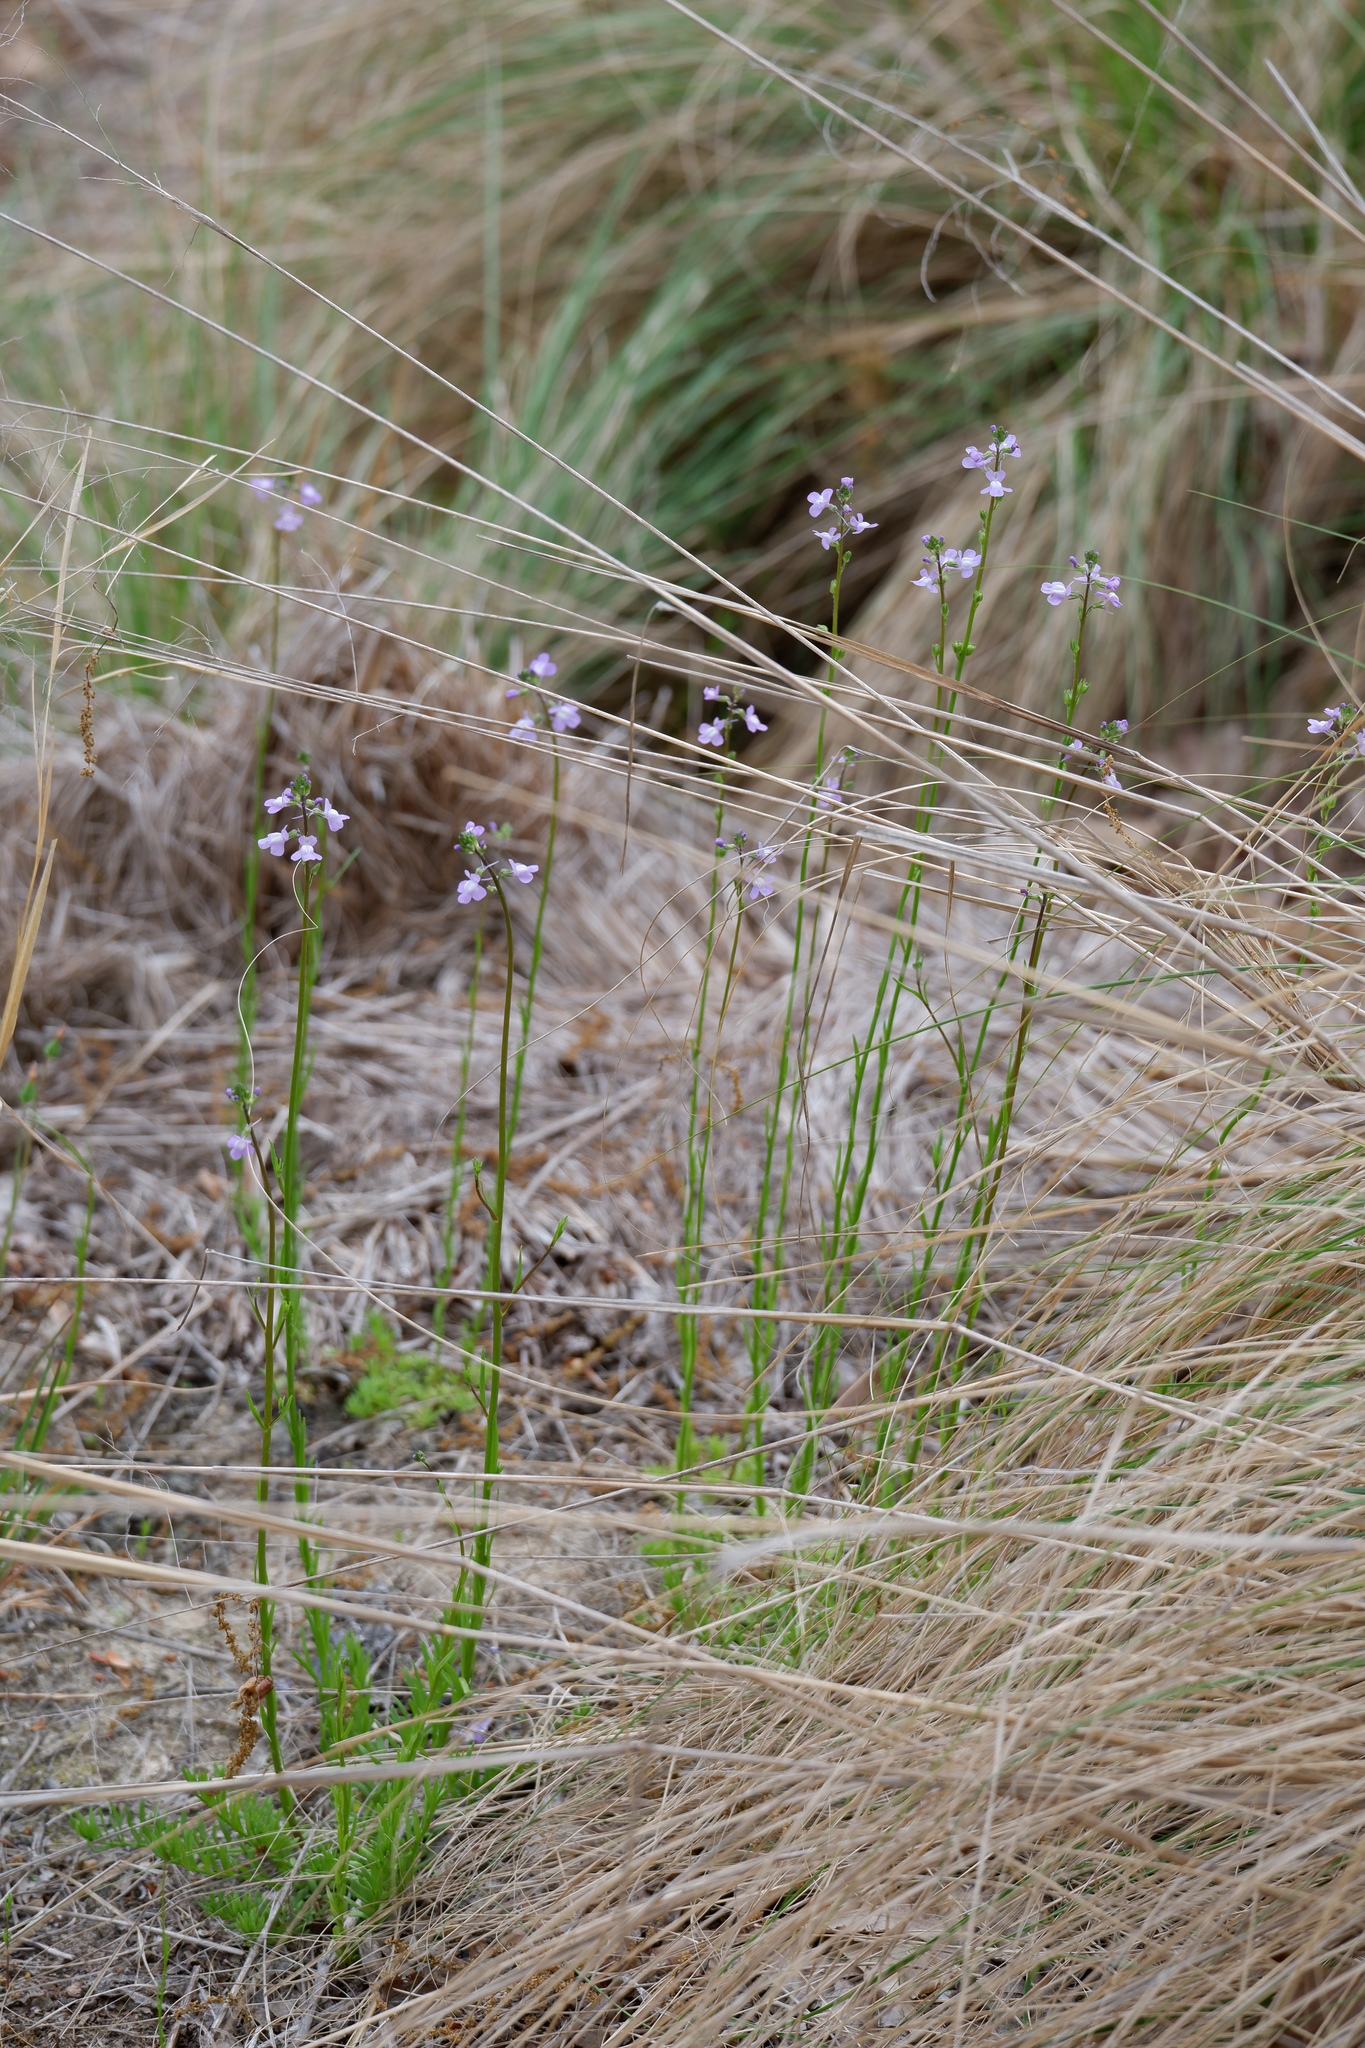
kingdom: Plantae
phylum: Tracheophyta
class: Magnoliopsida
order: Lamiales
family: Plantaginaceae
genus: Nuttallanthus
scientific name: Nuttallanthus canadensis
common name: Blue toadflax
